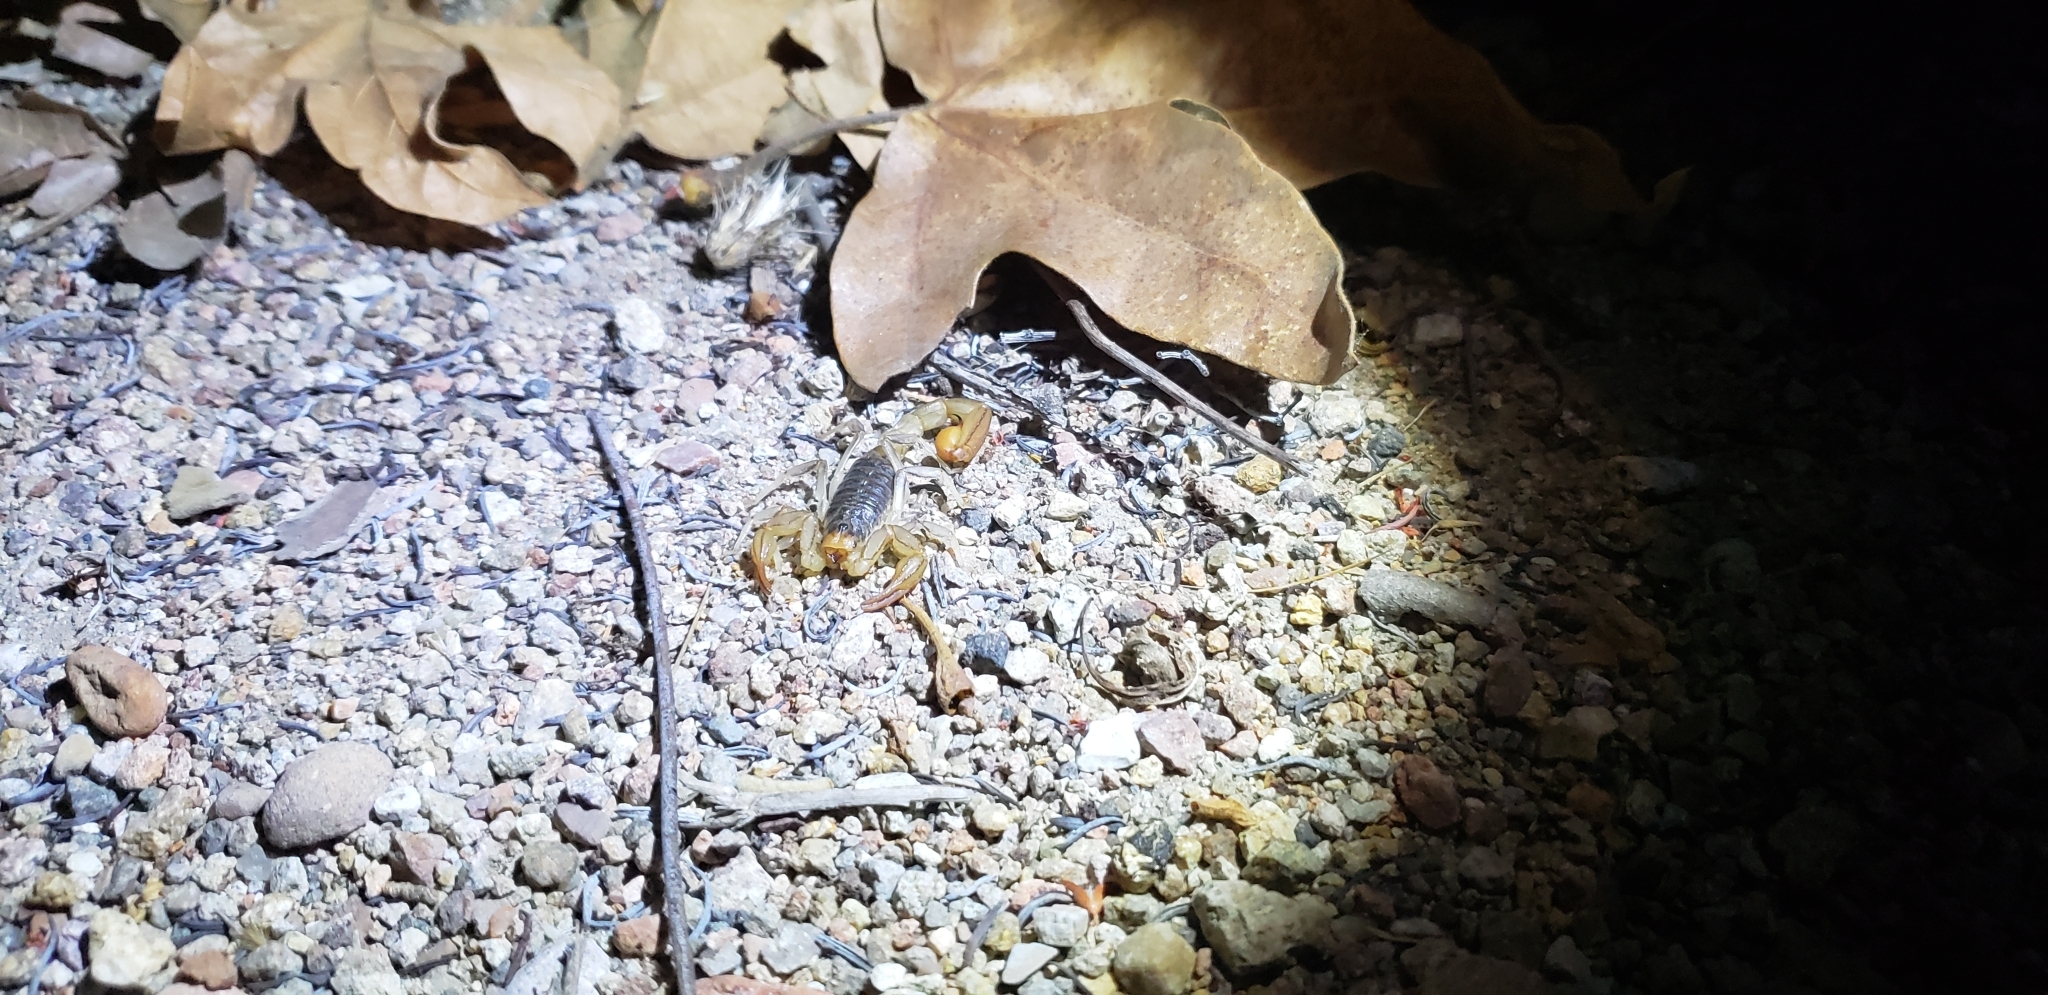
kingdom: Animalia
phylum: Arthropoda
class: Arachnida
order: Scorpiones
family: Vaejovidae
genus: Paruroctonus
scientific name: Paruroctonus silvestrii
